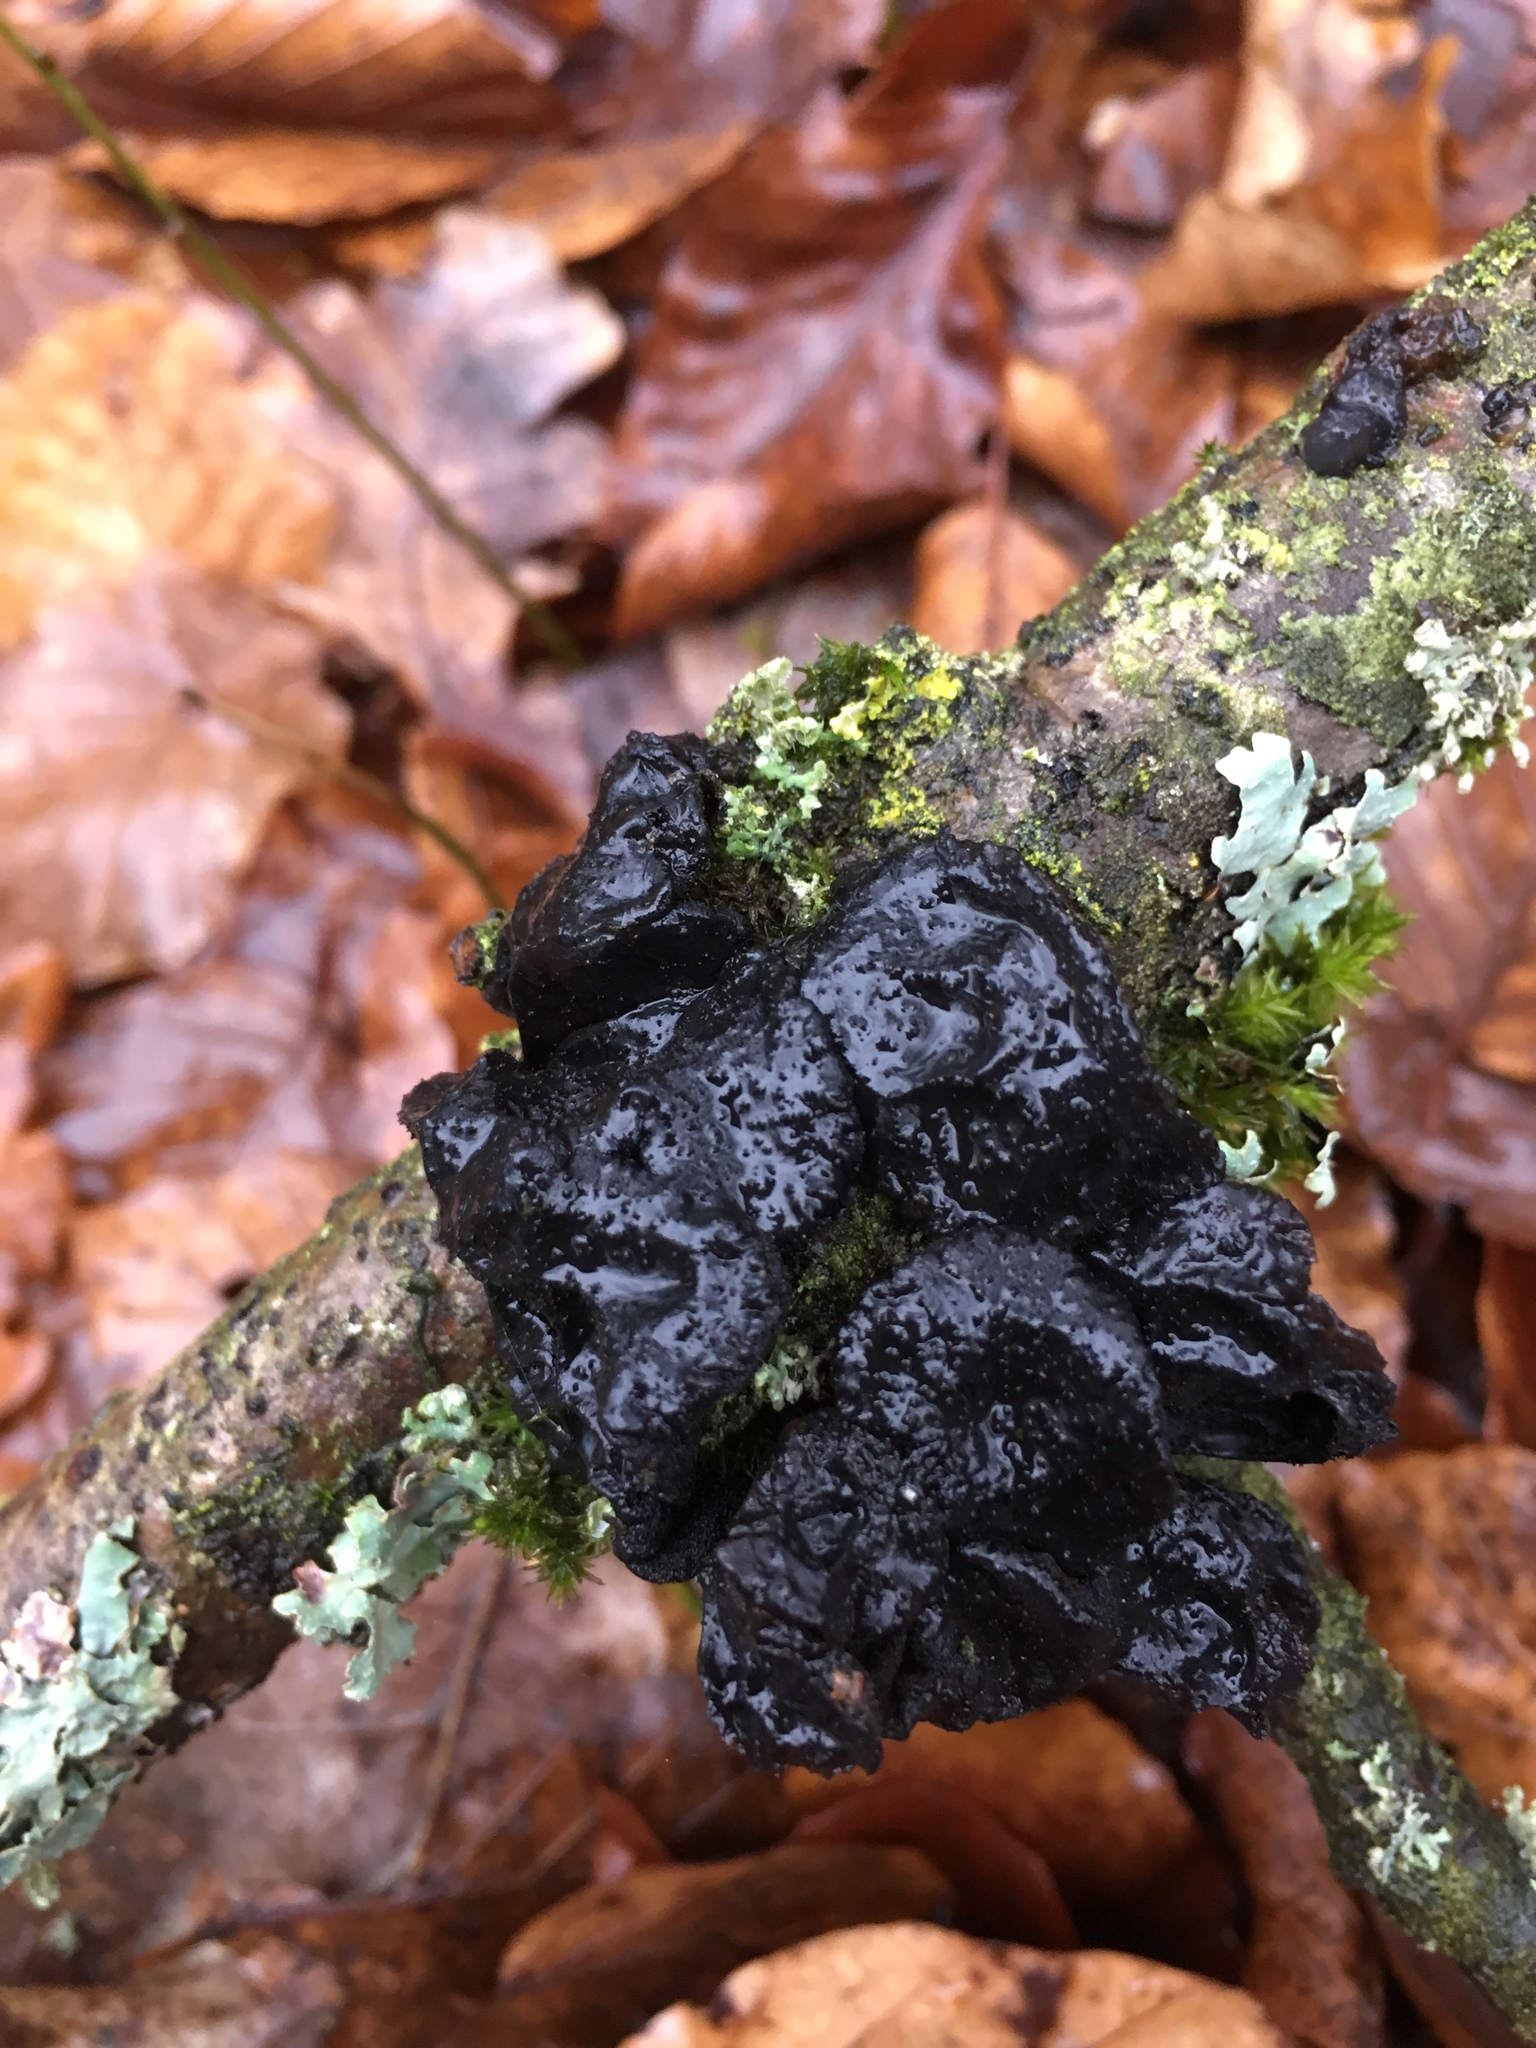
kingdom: Fungi
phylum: Basidiomycota
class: Agaricomycetes
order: Auriculariales
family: Auriculariaceae
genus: Exidia
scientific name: Exidia glandulosa
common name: Witches' butter
